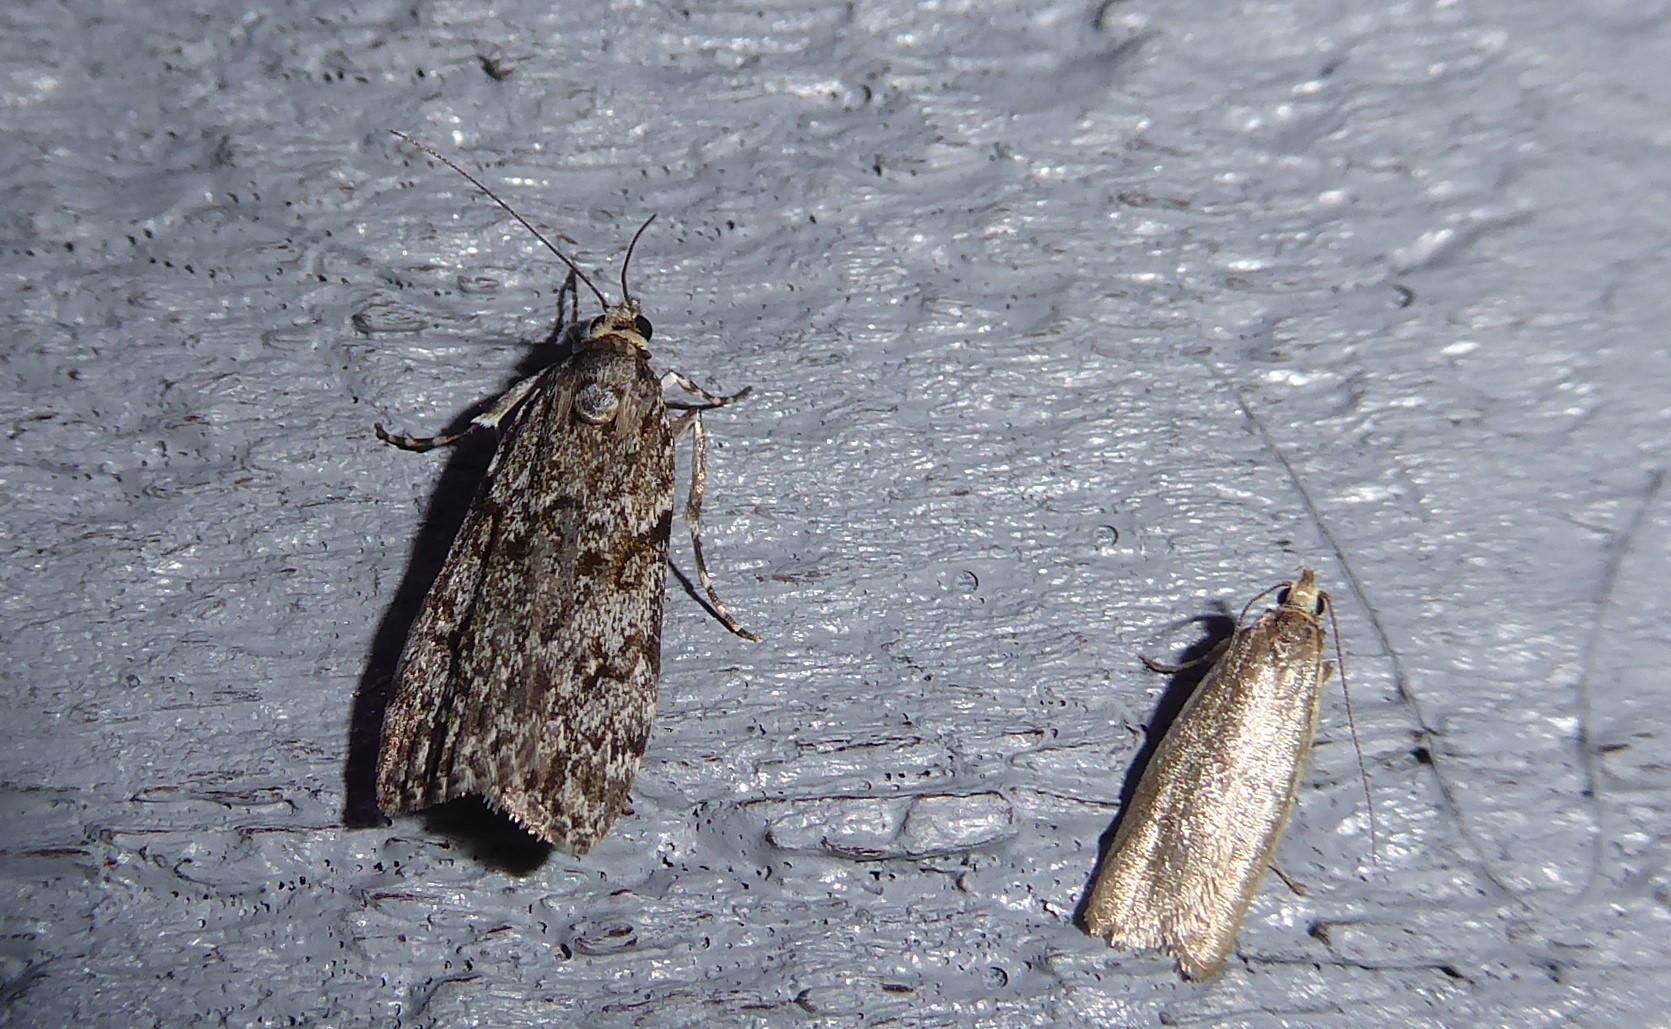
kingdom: Animalia
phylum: Arthropoda
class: Insecta
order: Lepidoptera
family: Oecophoridae
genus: Gymnobathra
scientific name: Gymnobathra parca
